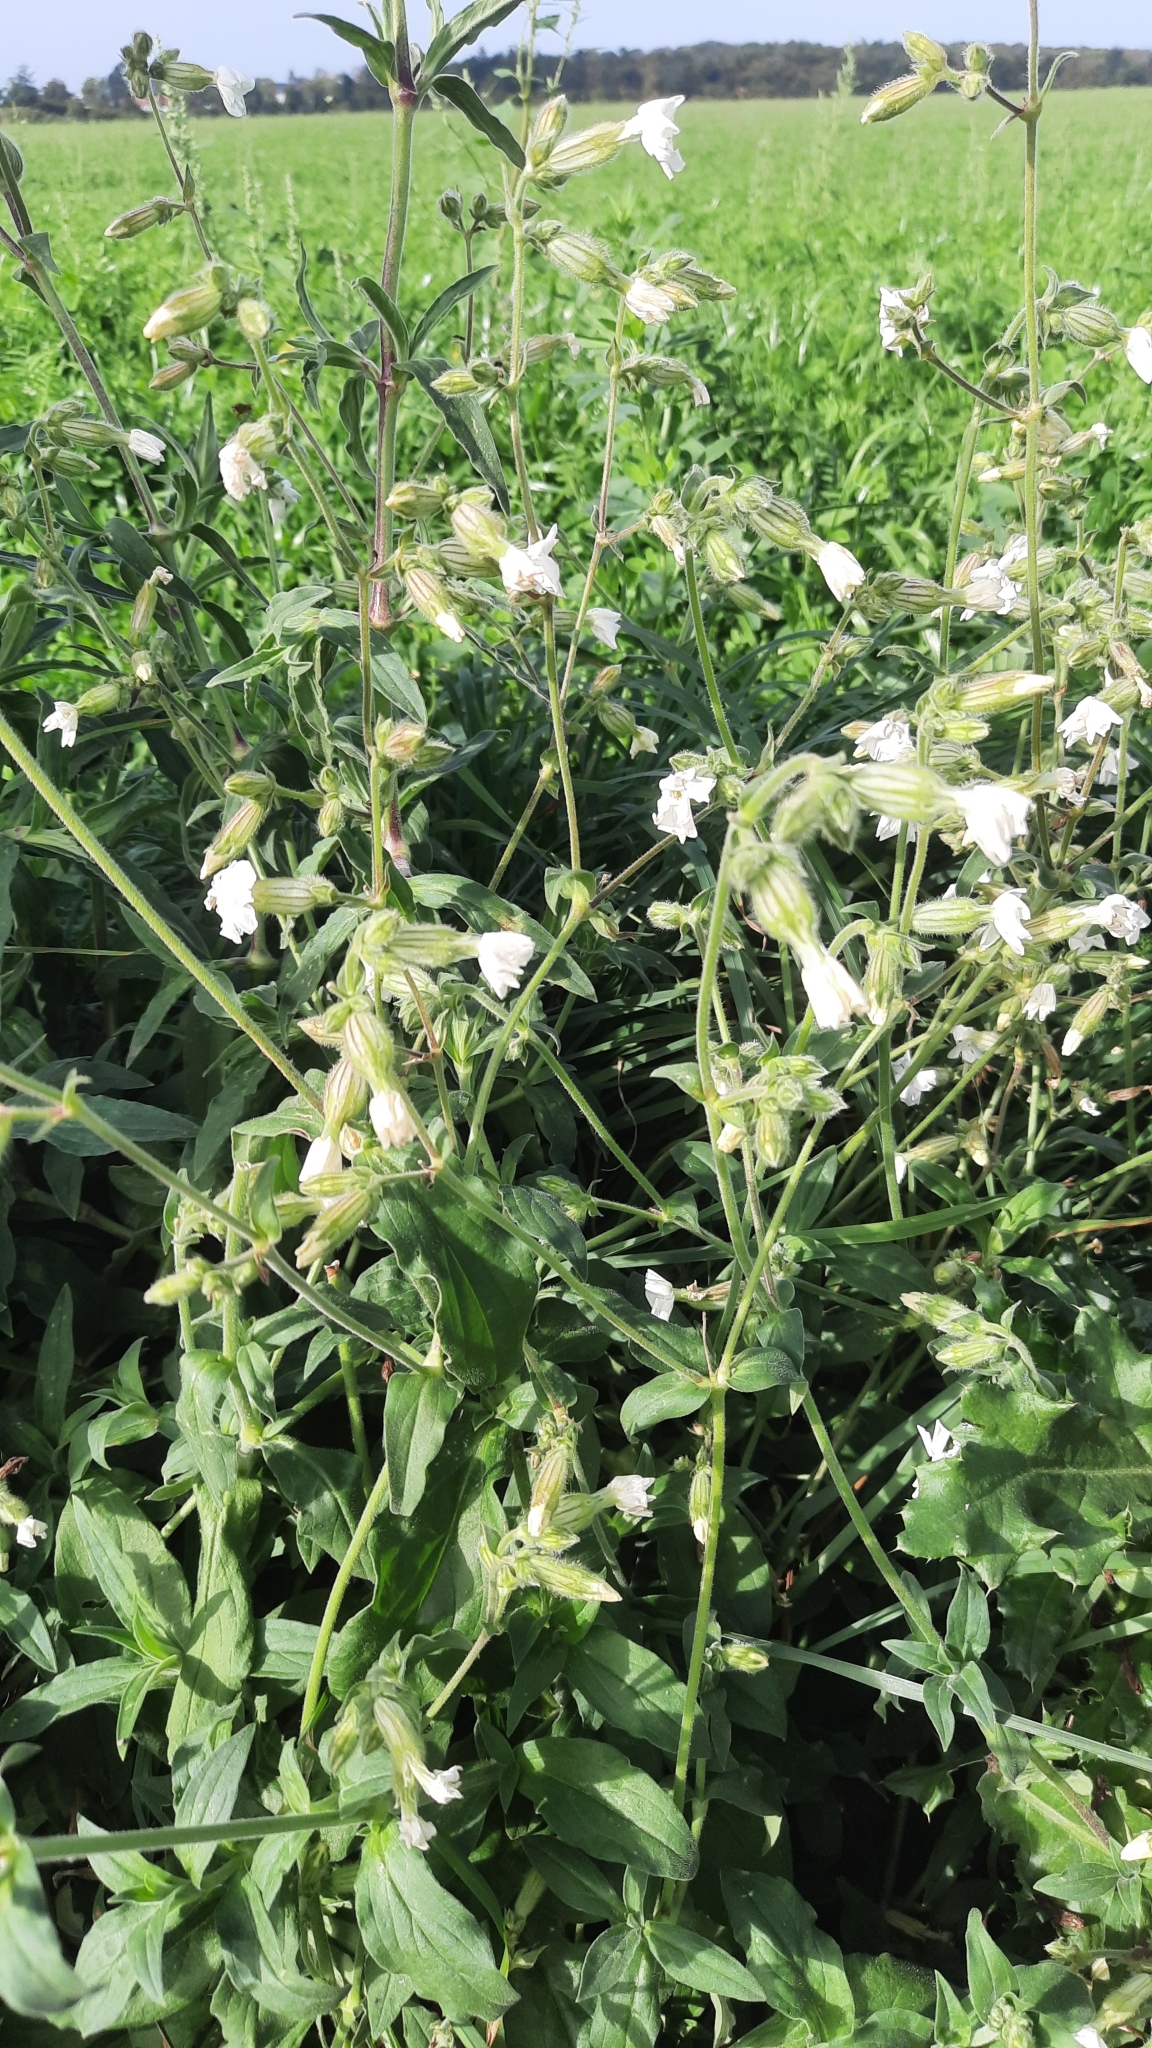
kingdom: Plantae
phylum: Tracheophyta
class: Magnoliopsida
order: Caryophyllales
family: Caryophyllaceae
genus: Silene
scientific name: Silene latifolia
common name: White campion
